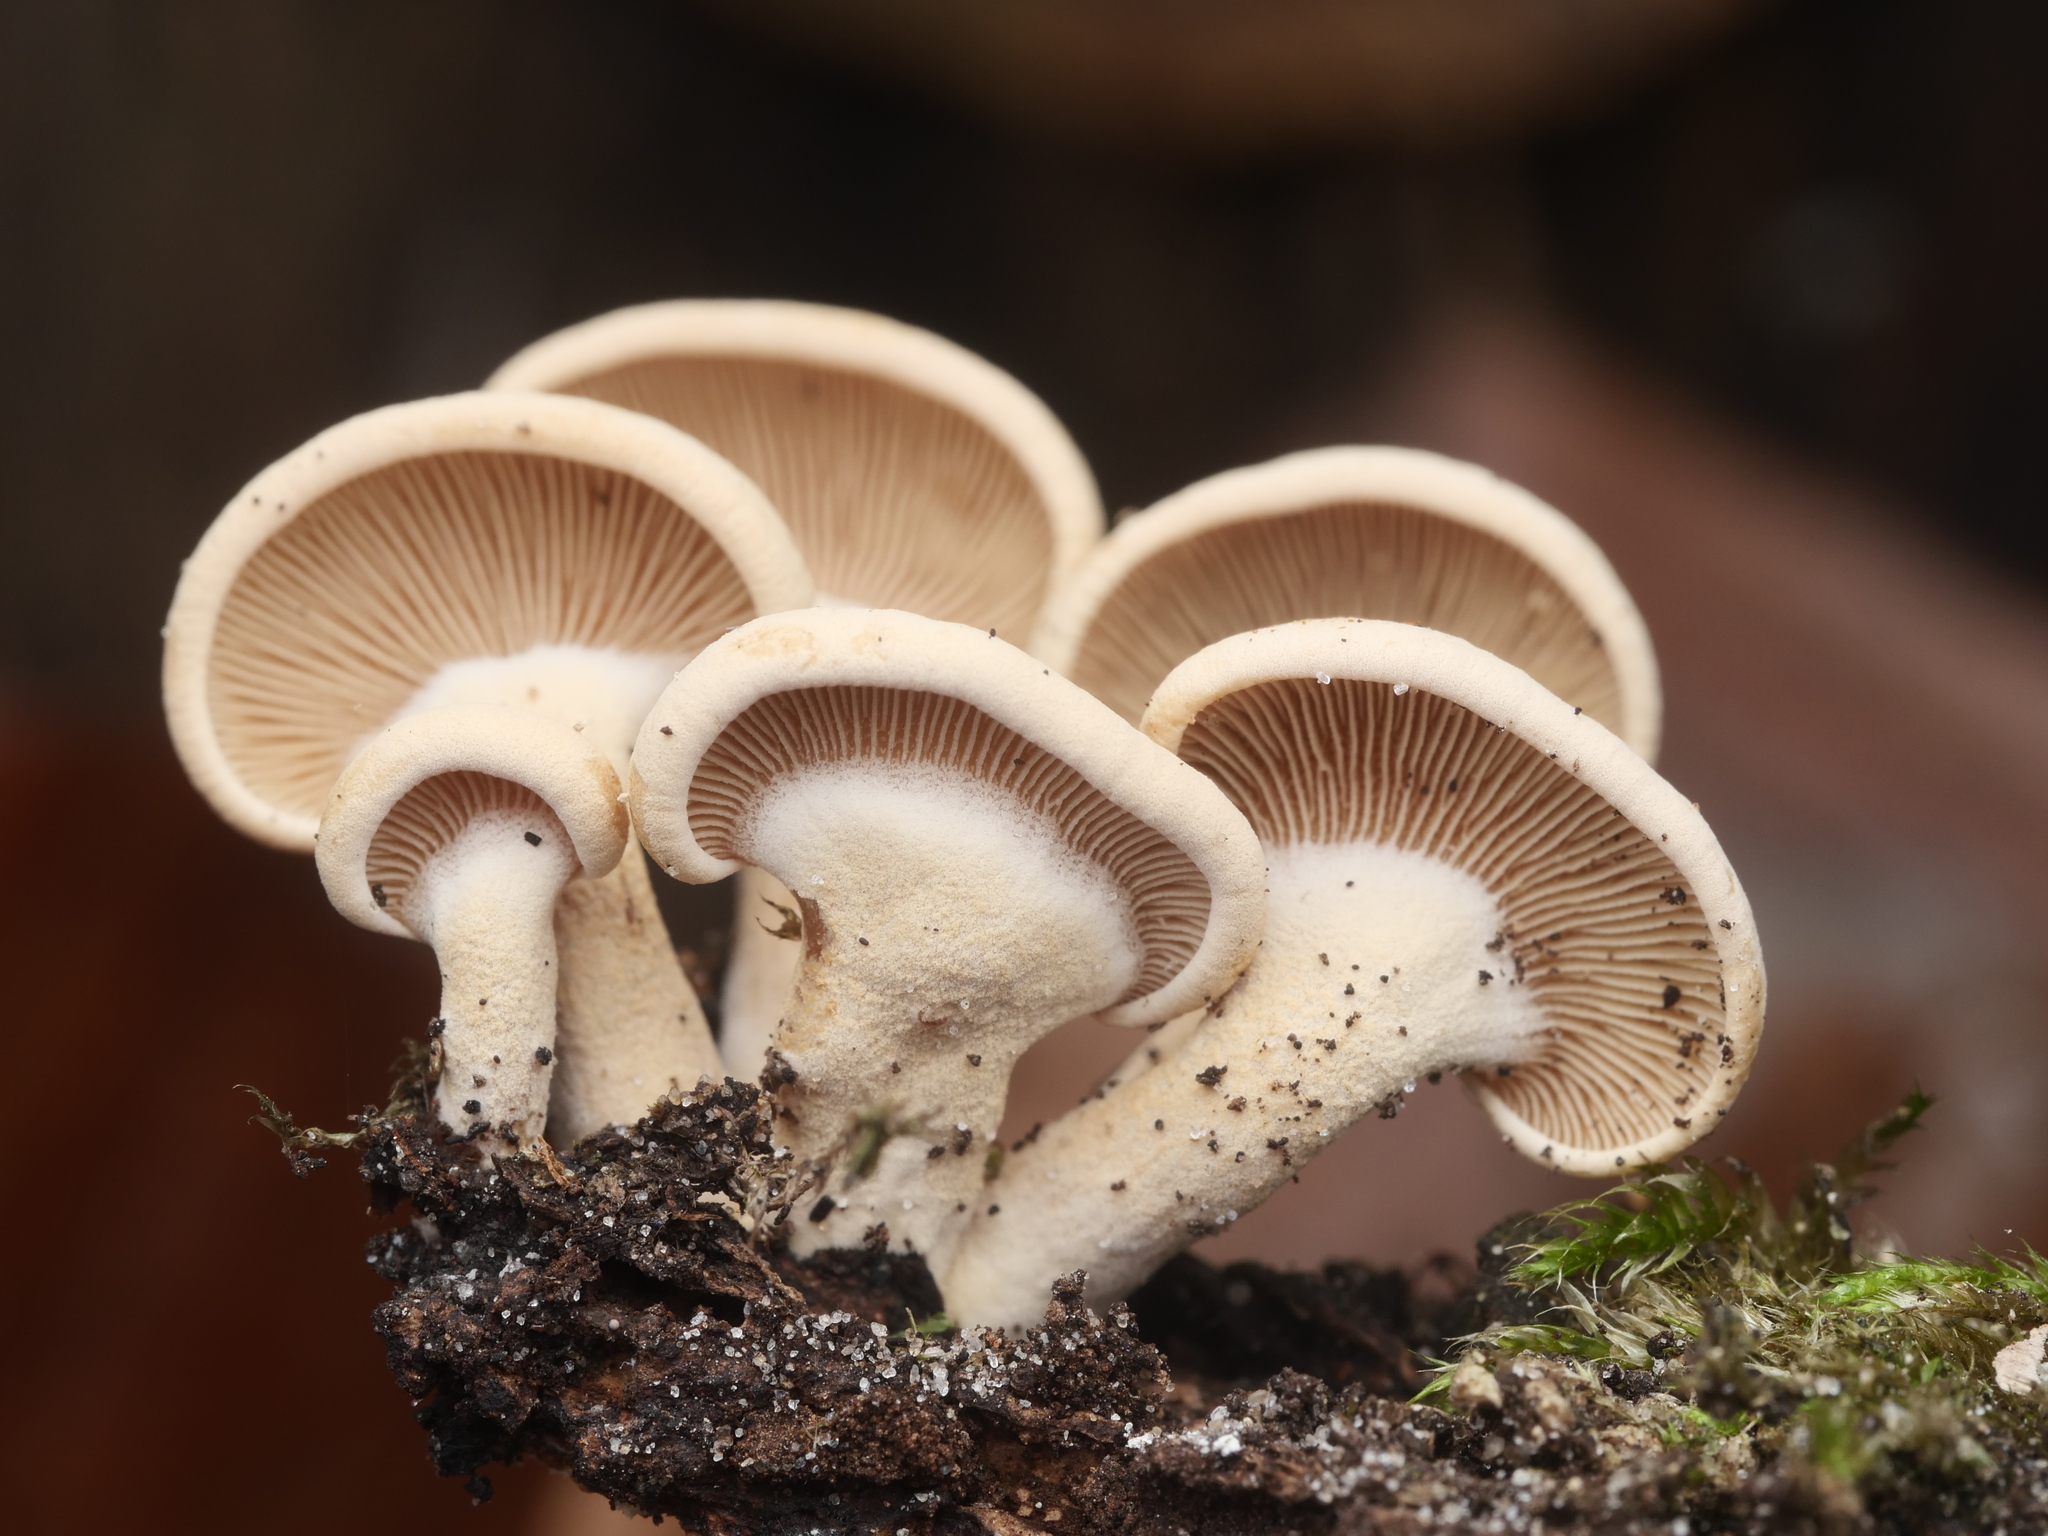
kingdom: Fungi
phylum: Basidiomycota
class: Agaricomycetes
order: Agaricales
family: Mycenaceae
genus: Panellus
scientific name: Panellus stipticus
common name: Bitter oysterling
